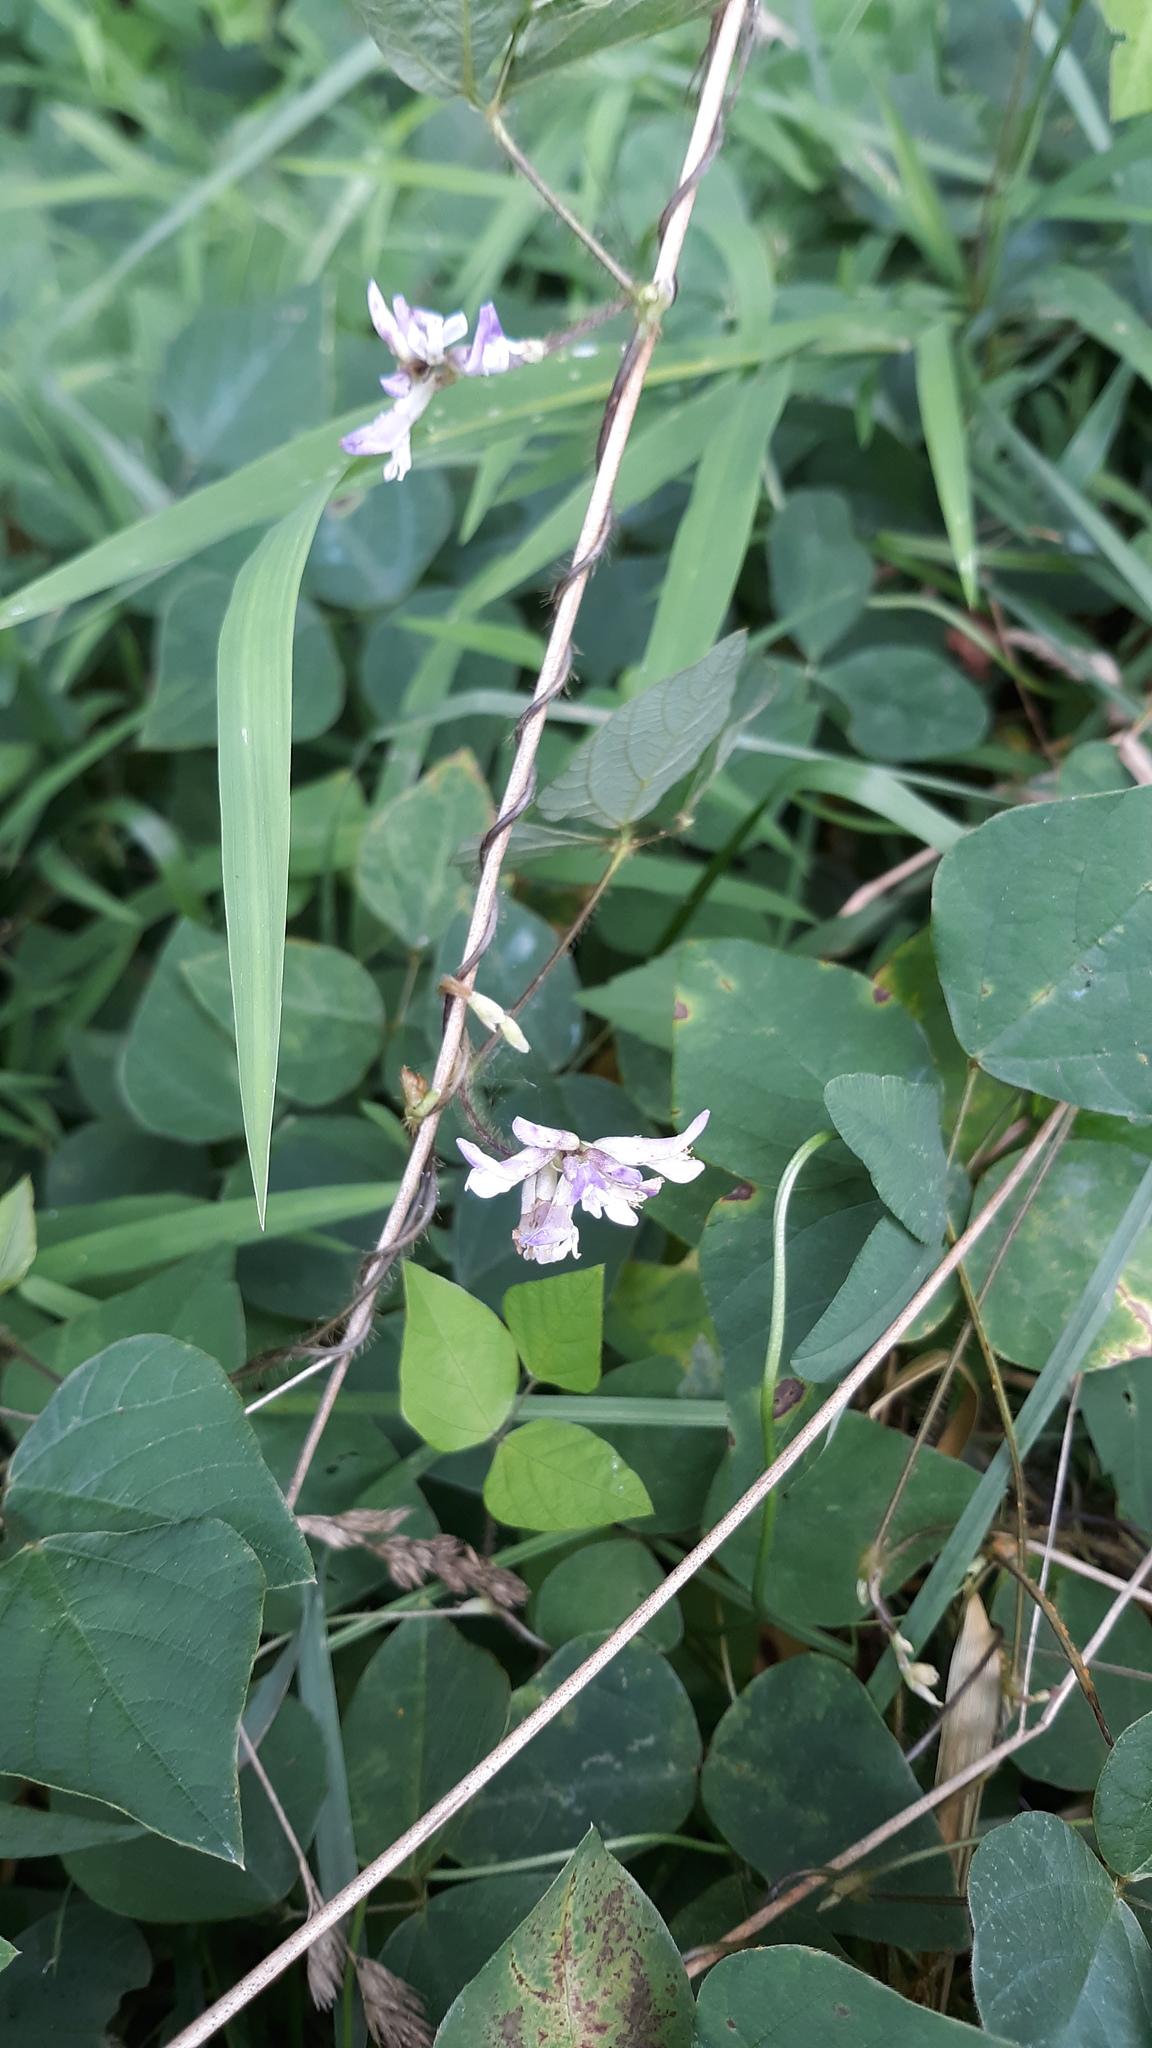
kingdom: Plantae
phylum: Tracheophyta
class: Magnoliopsida
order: Fabales
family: Fabaceae
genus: Amphicarpaea
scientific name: Amphicarpaea bracteata
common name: American hog peanut
